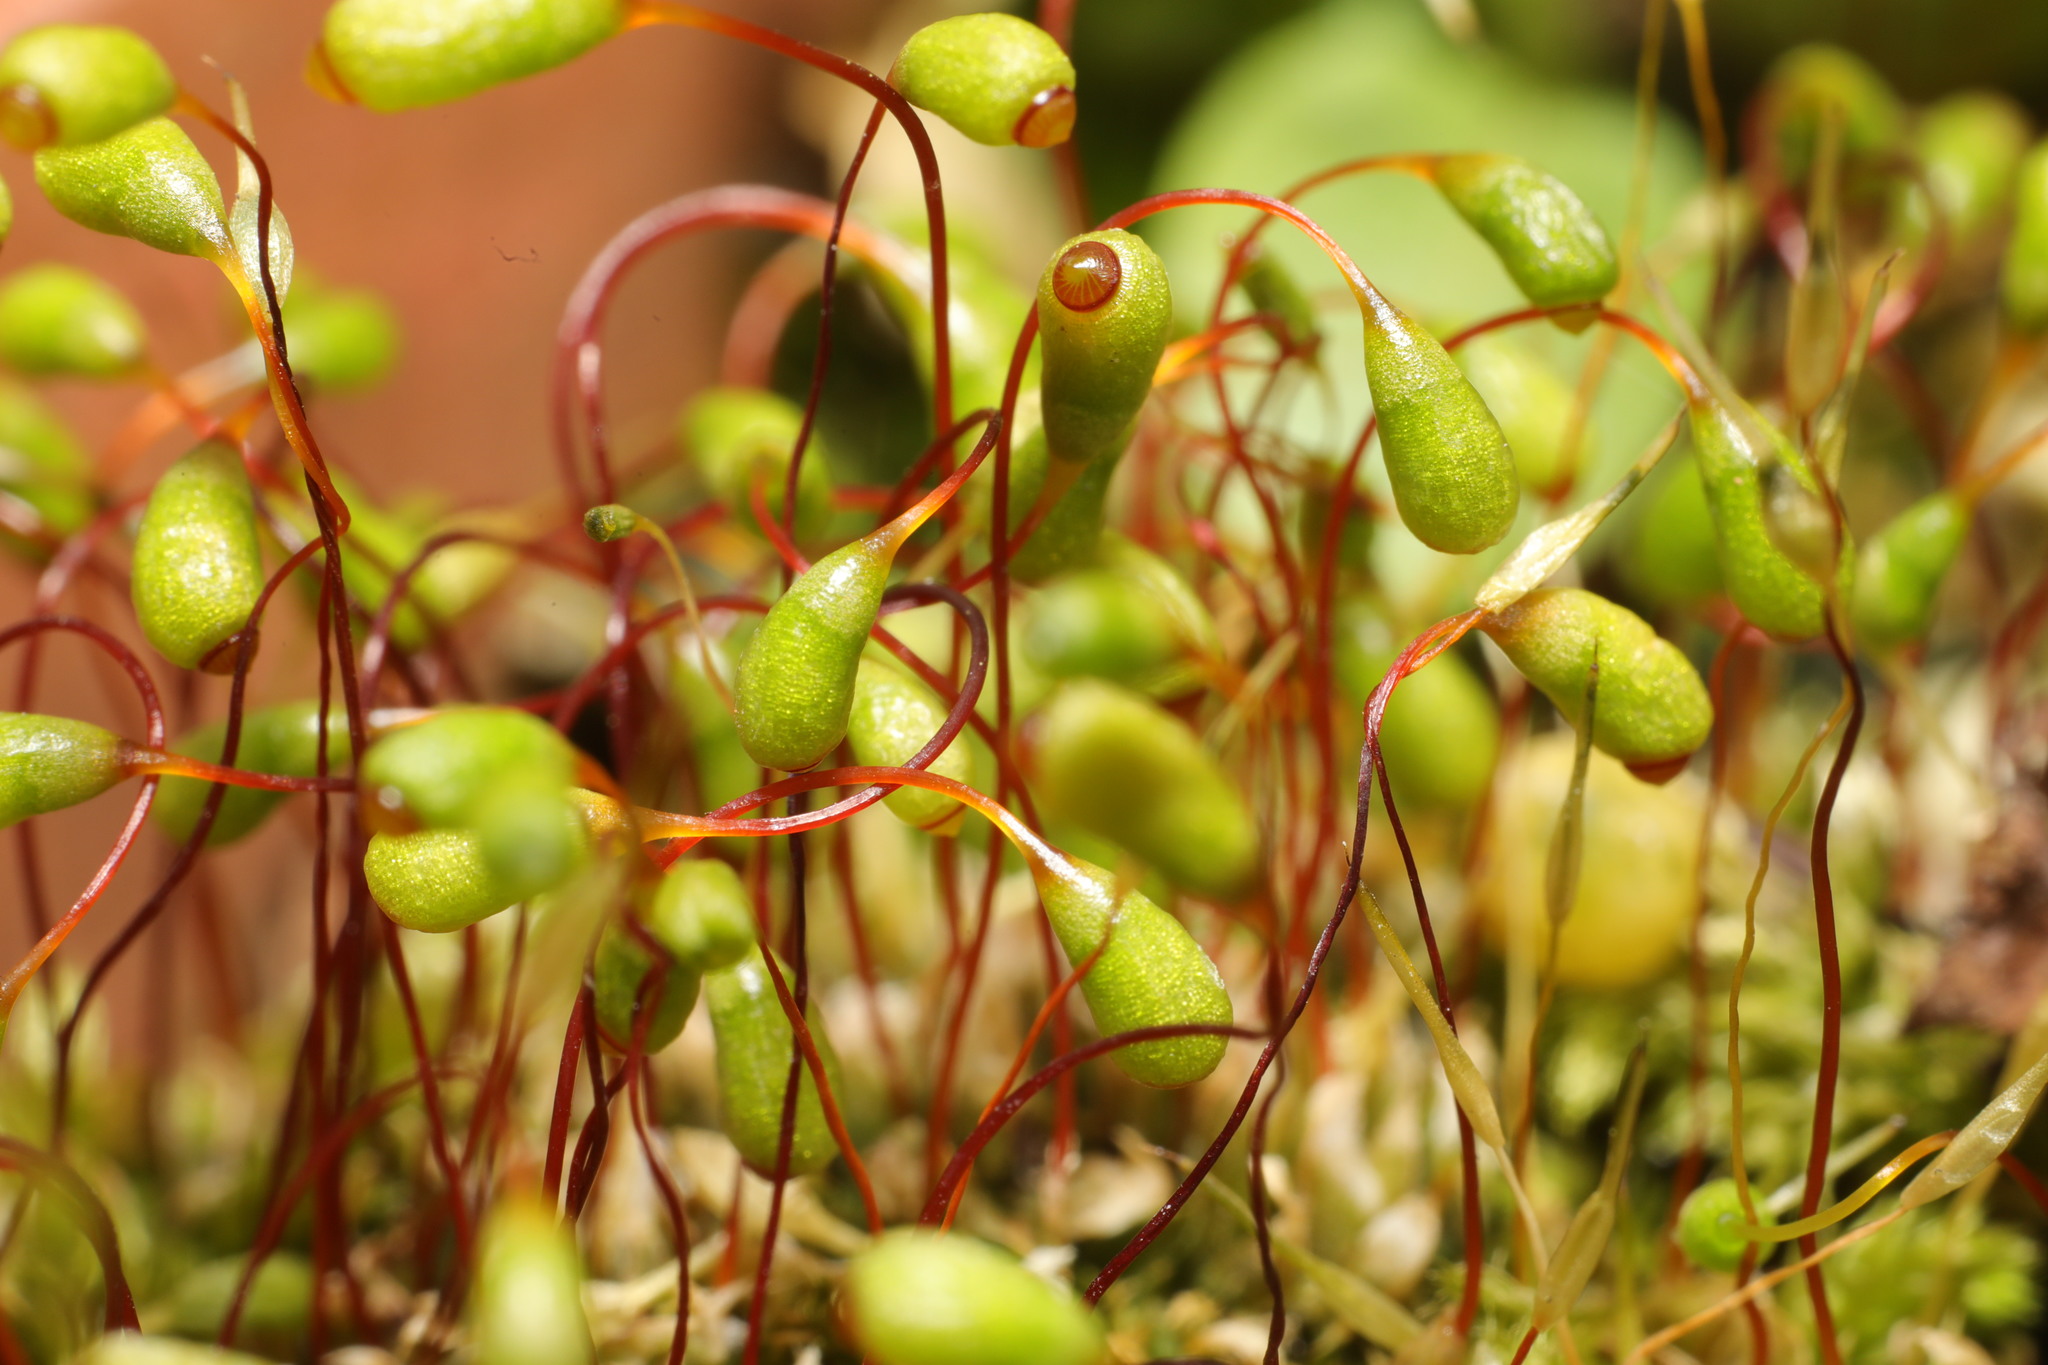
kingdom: Plantae
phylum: Bryophyta
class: Bryopsida
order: Funariales
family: Funariaceae
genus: Funaria
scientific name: Funaria hygrometrica
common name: Common cord moss
